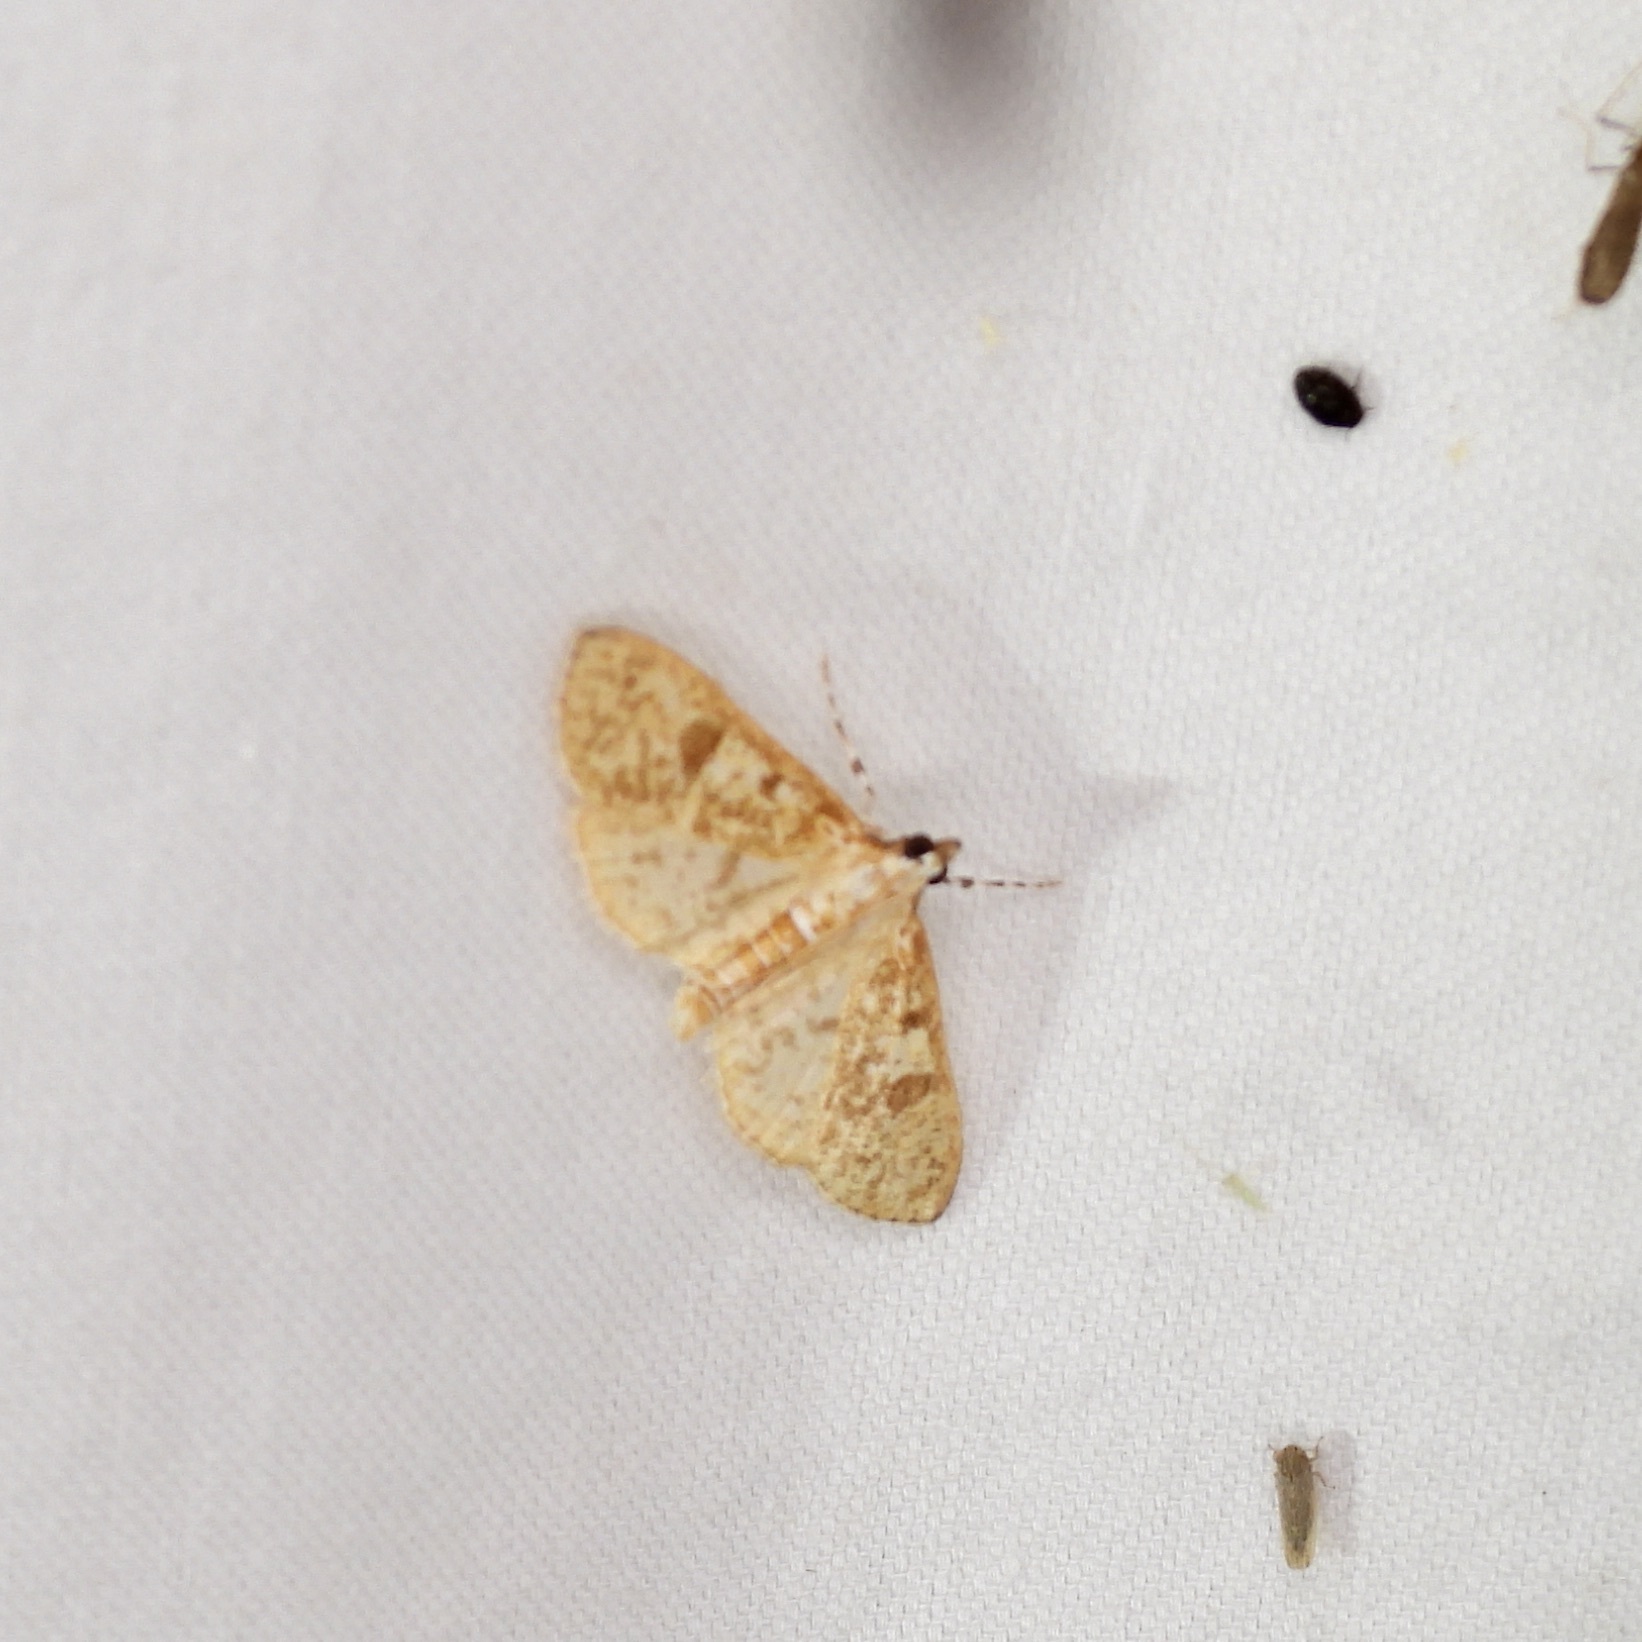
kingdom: Animalia
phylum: Arthropoda
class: Insecta
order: Lepidoptera
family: Crambidae
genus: Palpita
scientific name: Palpita freemanalis
